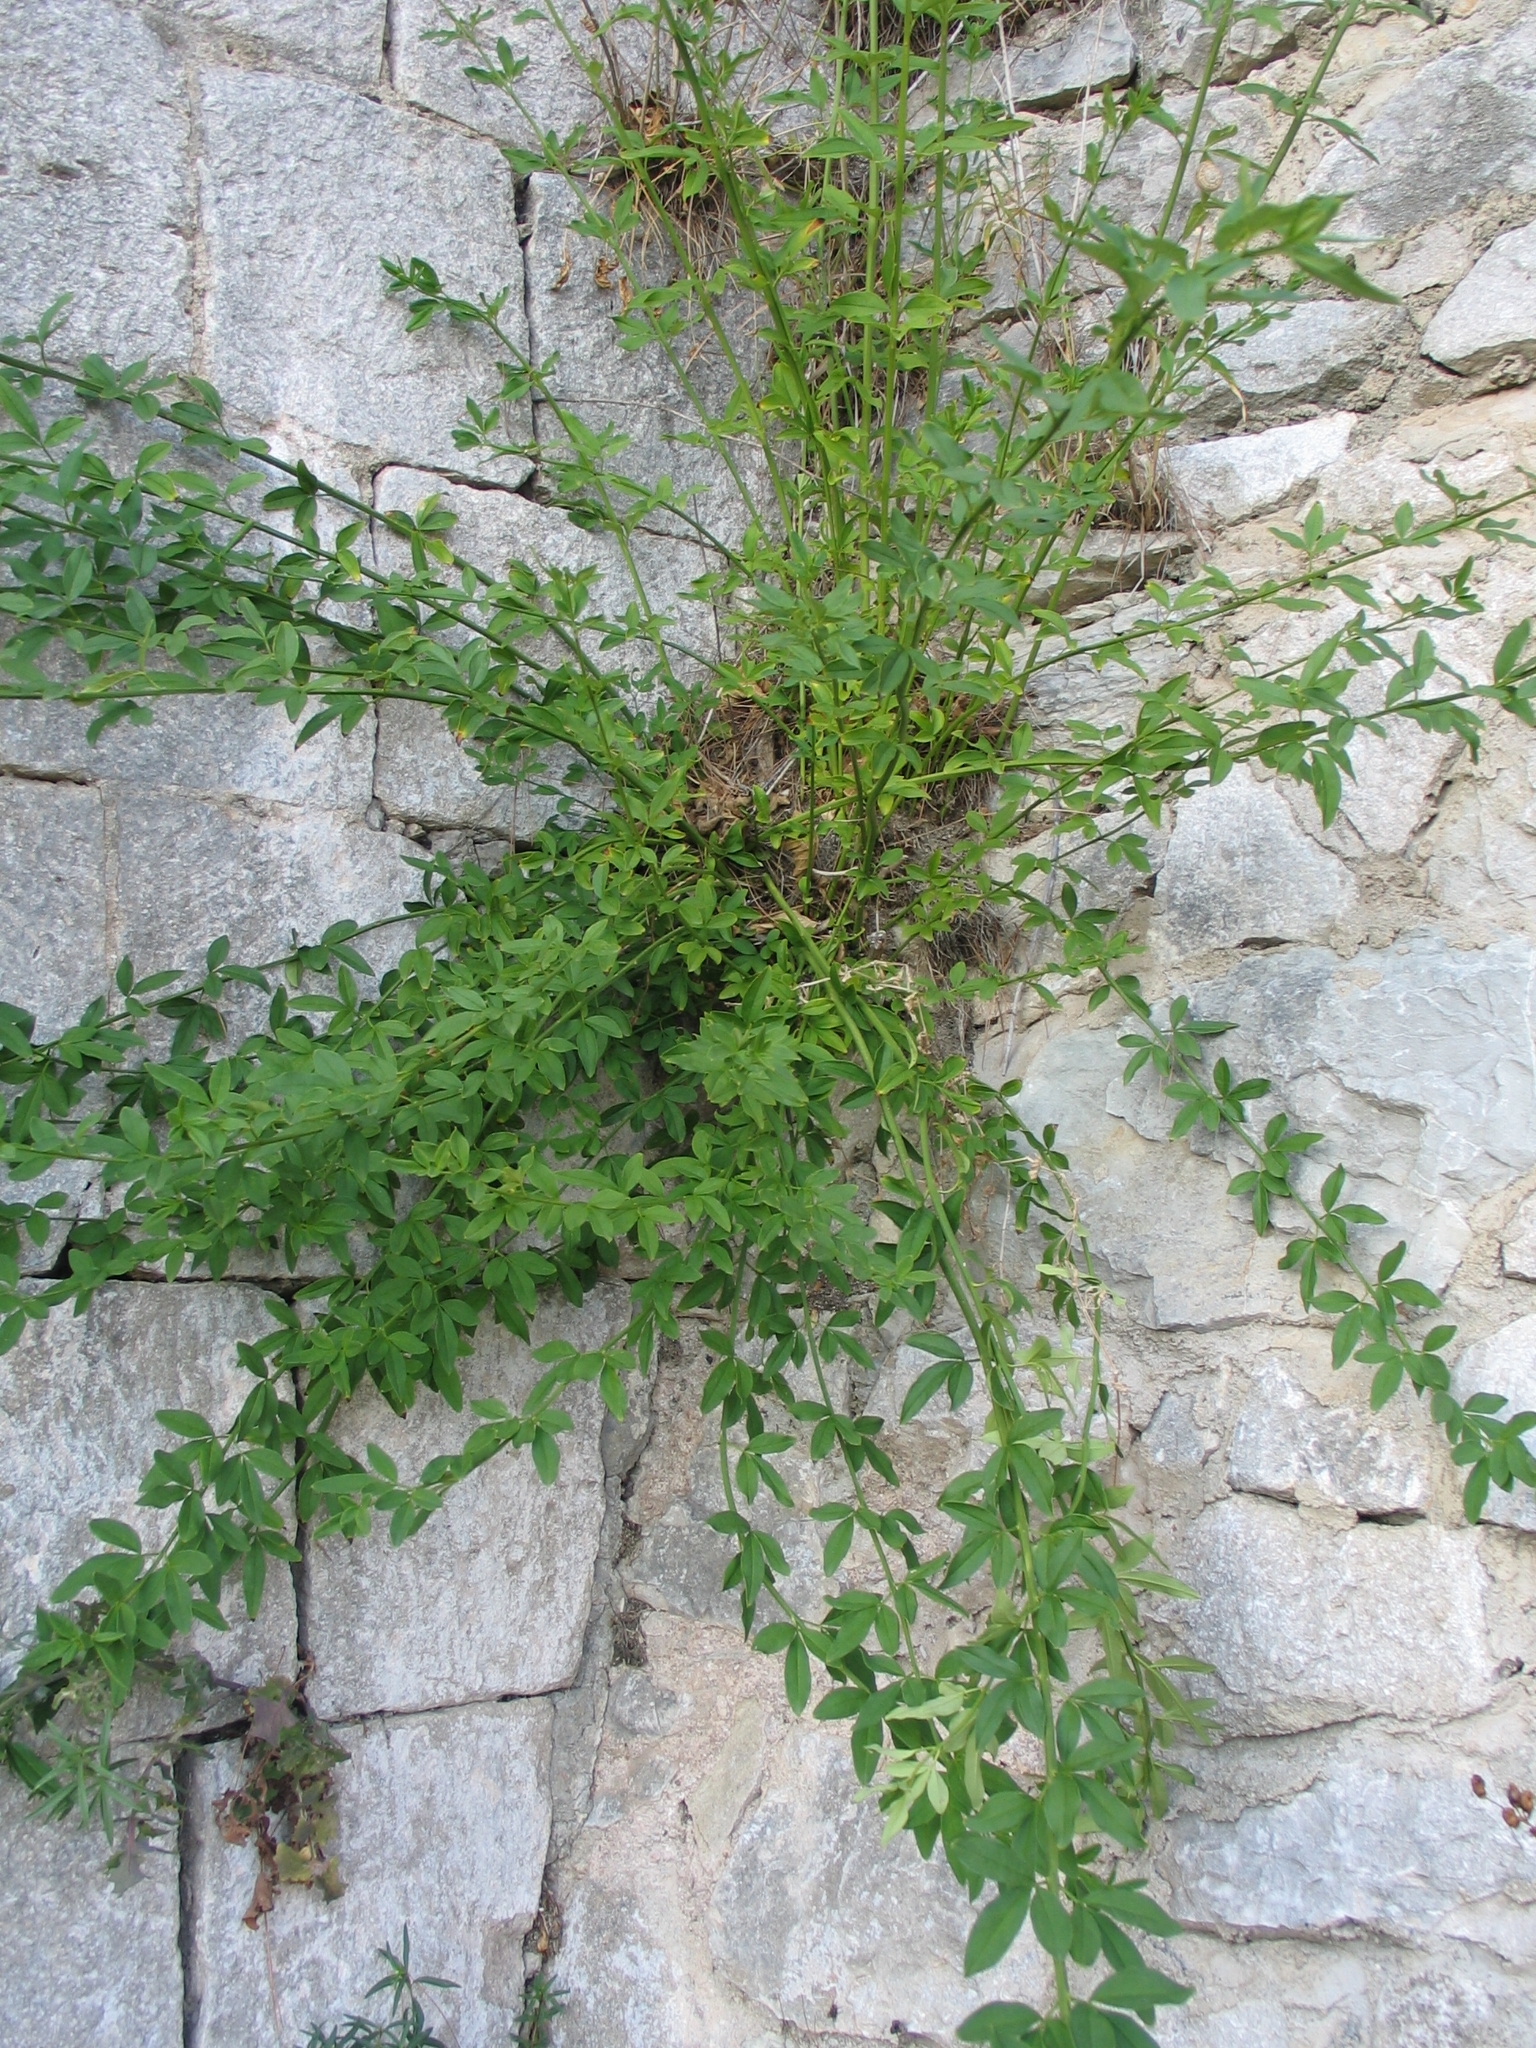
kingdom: Plantae
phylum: Tracheophyta
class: Magnoliopsida
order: Lamiales
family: Oleaceae
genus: Jasminum
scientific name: Jasminum nudiflorum
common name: Winter jasmine
